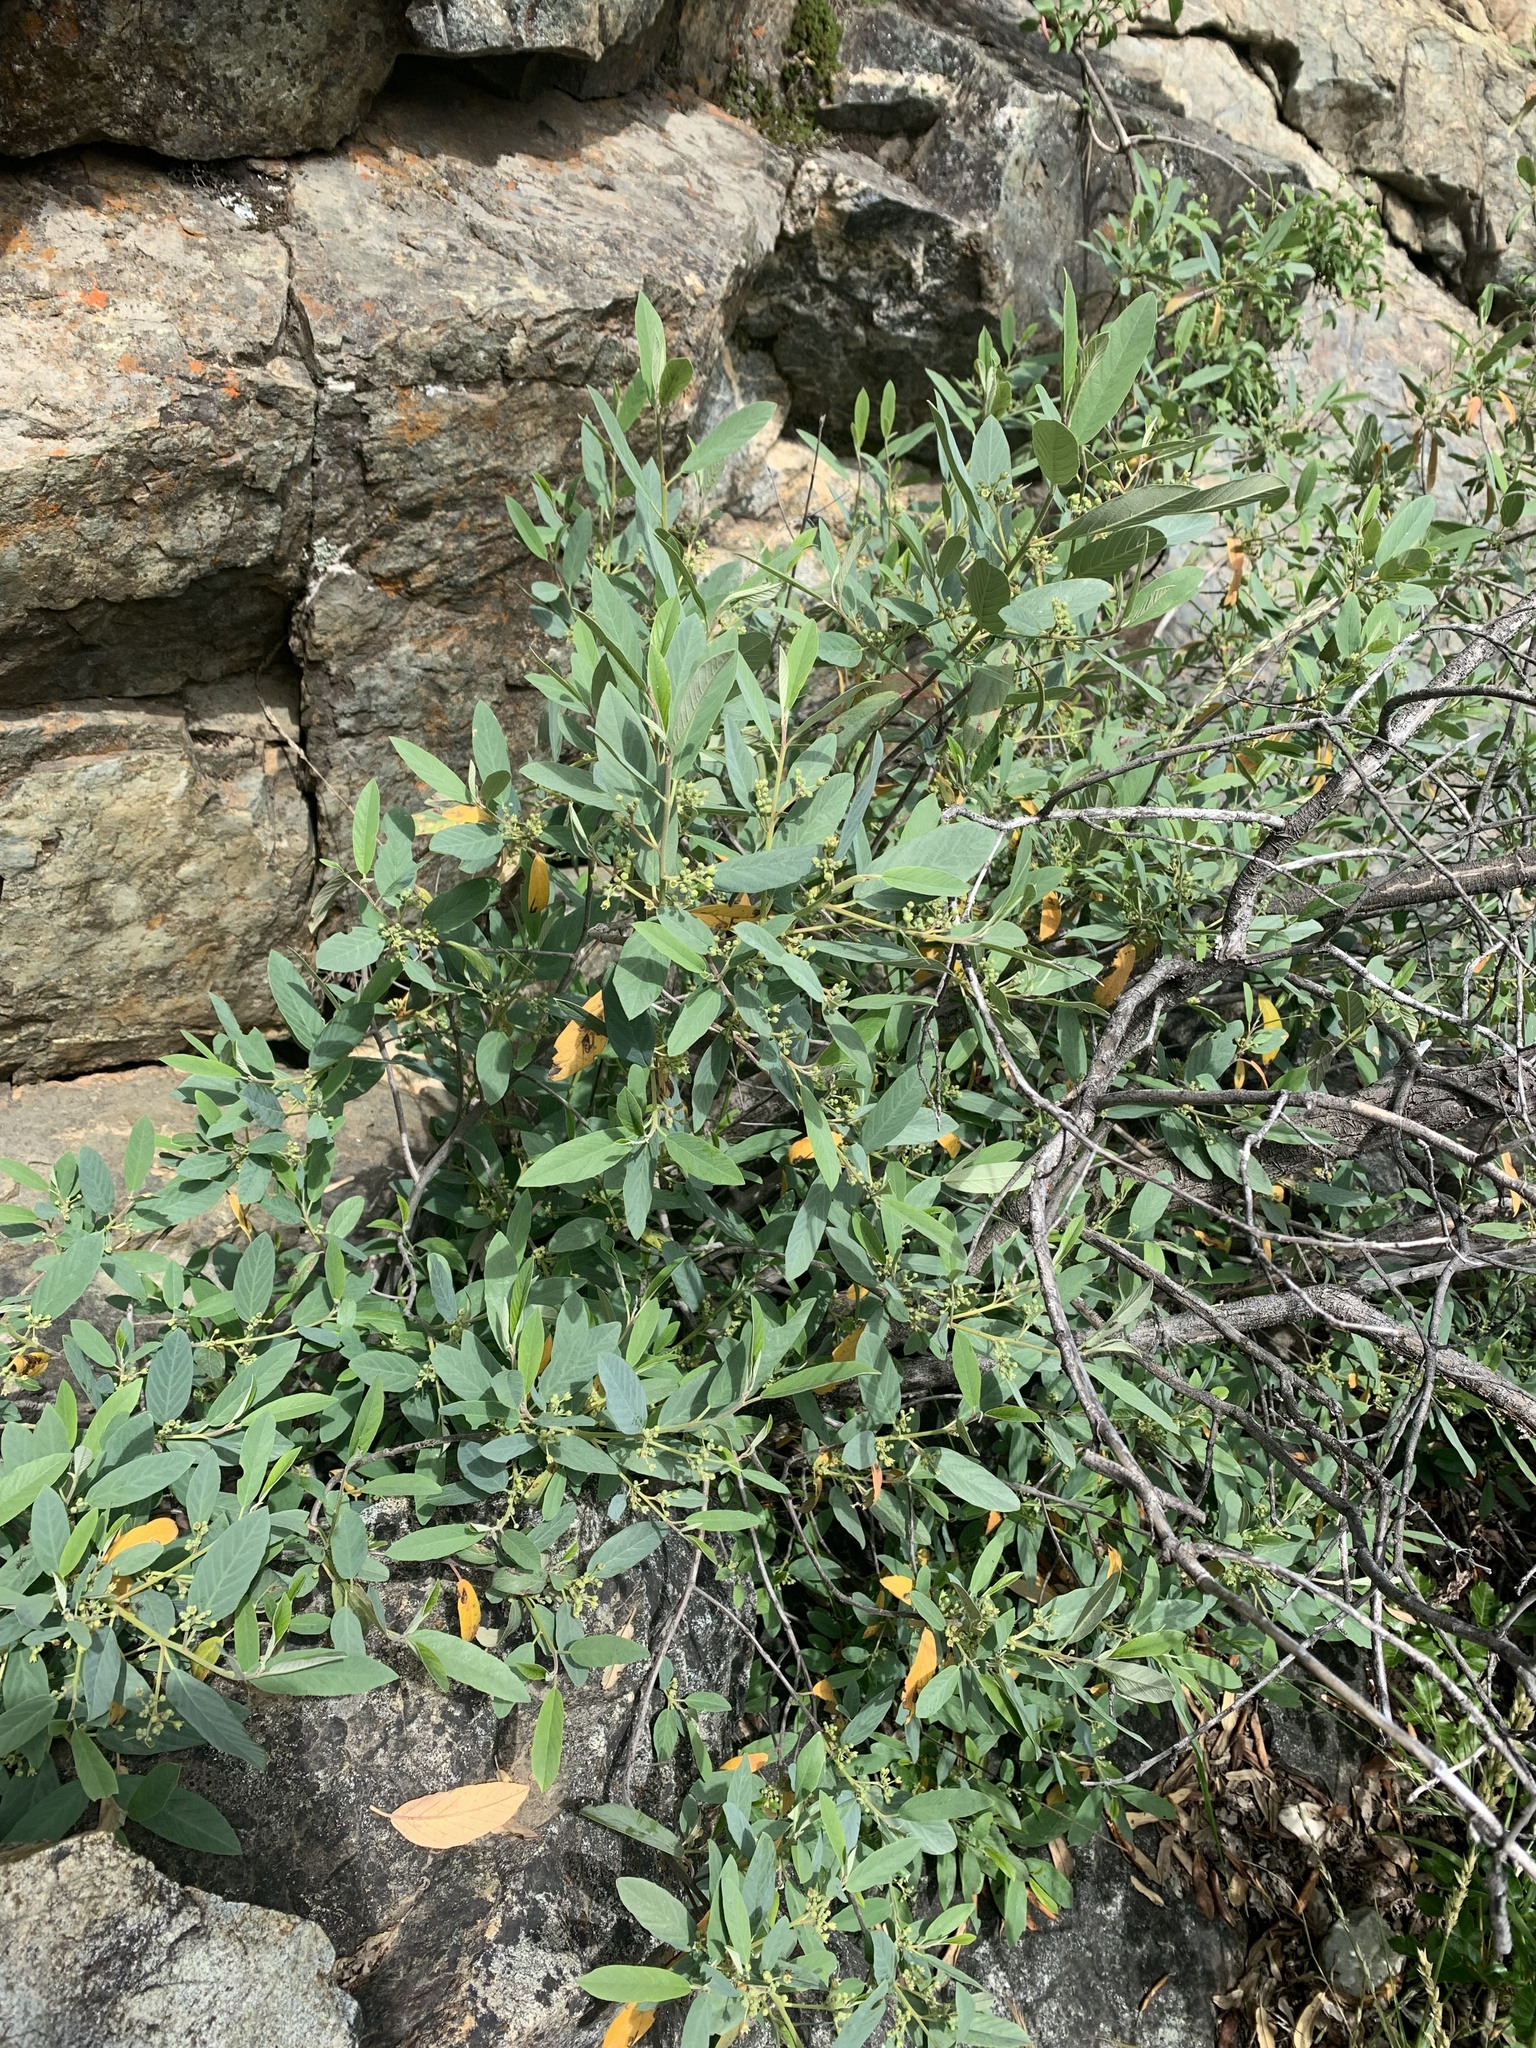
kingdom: Plantae
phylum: Tracheophyta
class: Magnoliopsida
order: Rosales
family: Rhamnaceae
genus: Frangula
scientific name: Frangula californica
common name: California buckthorn
